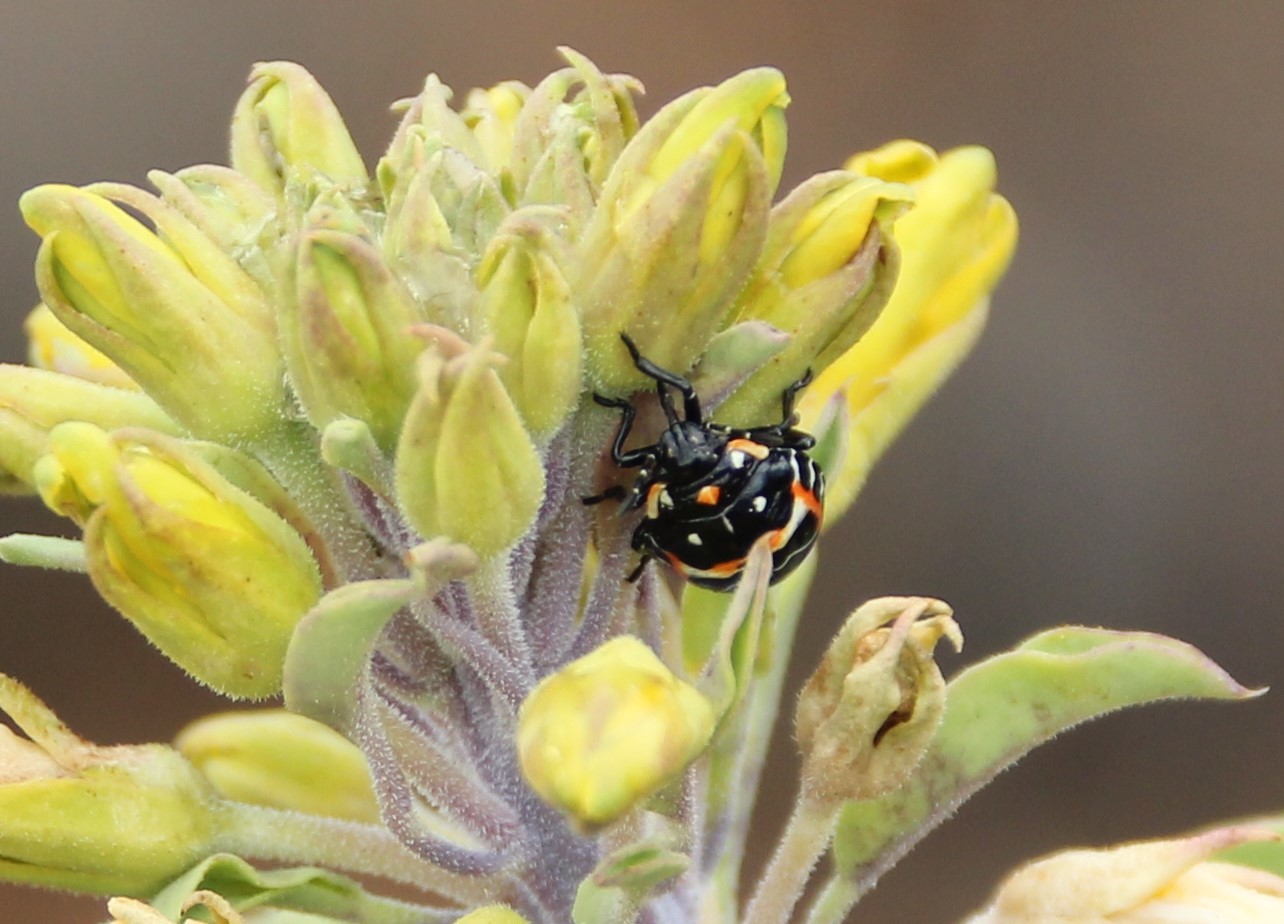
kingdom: Animalia
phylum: Arthropoda
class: Insecta
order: Hemiptera
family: Pentatomidae
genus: Murgantia
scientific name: Murgantia histrionica
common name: Harlequin bug
